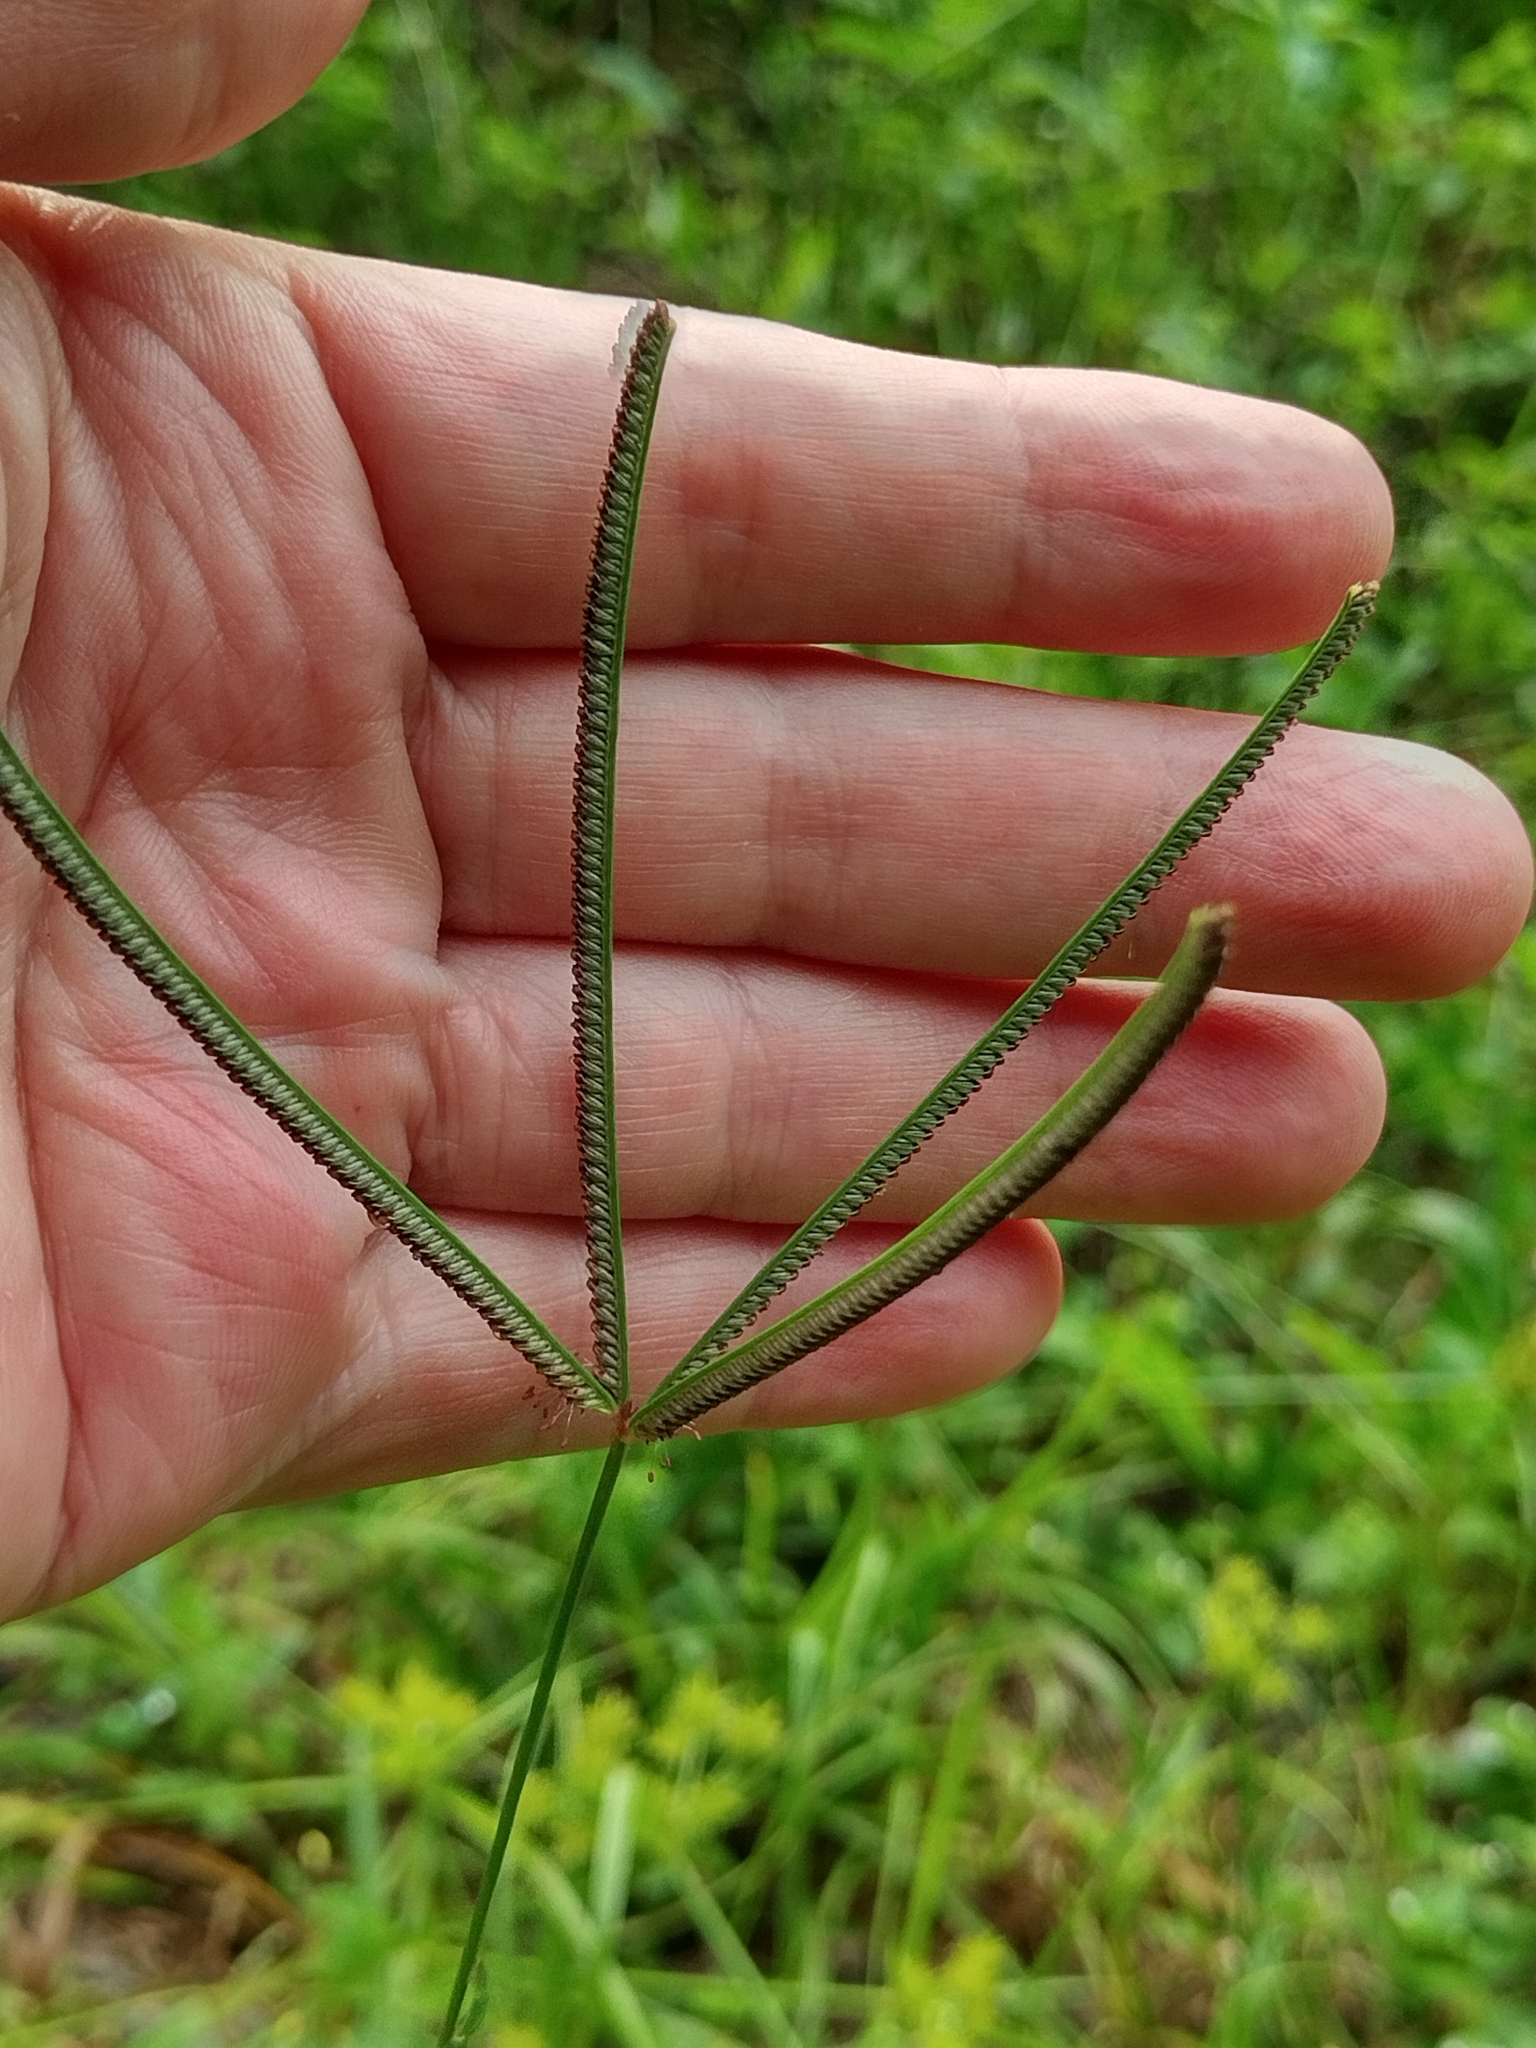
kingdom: Plantae
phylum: Tracheophyta
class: Liliopsida
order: Poales
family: Poaceae
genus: Eustachys
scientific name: Eustachys neglecta
